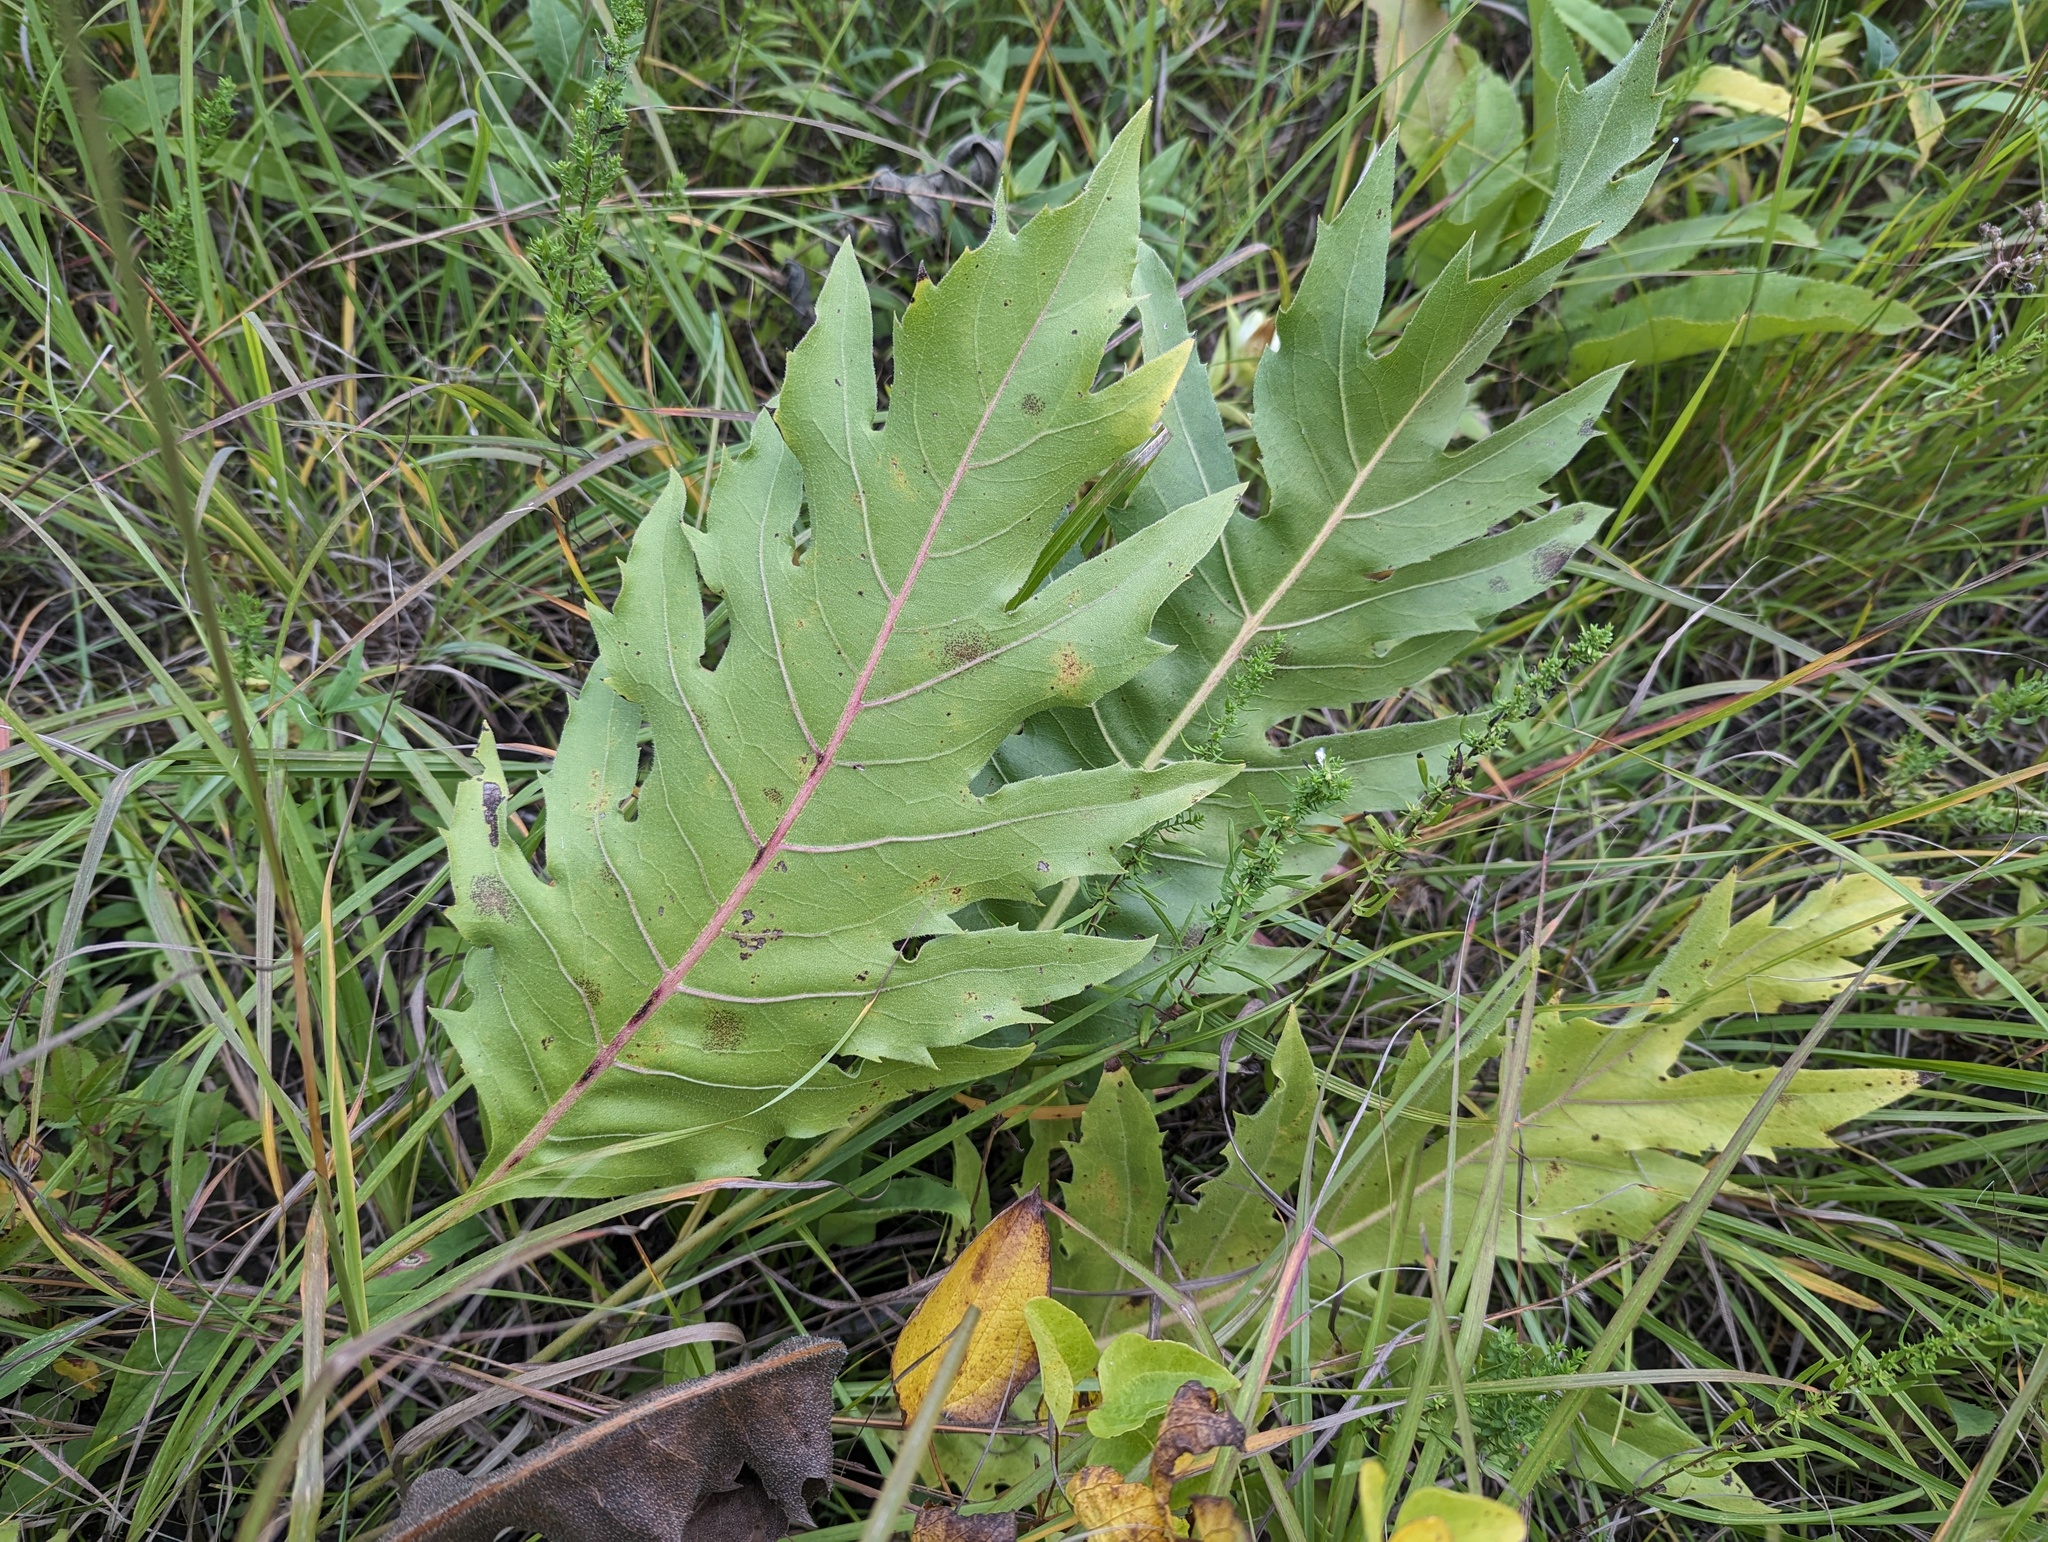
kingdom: Plantae
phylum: Tracheophyta
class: Magnoliopsida
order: Asterales
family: Asteraceae
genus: Silphium
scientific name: Silphium
